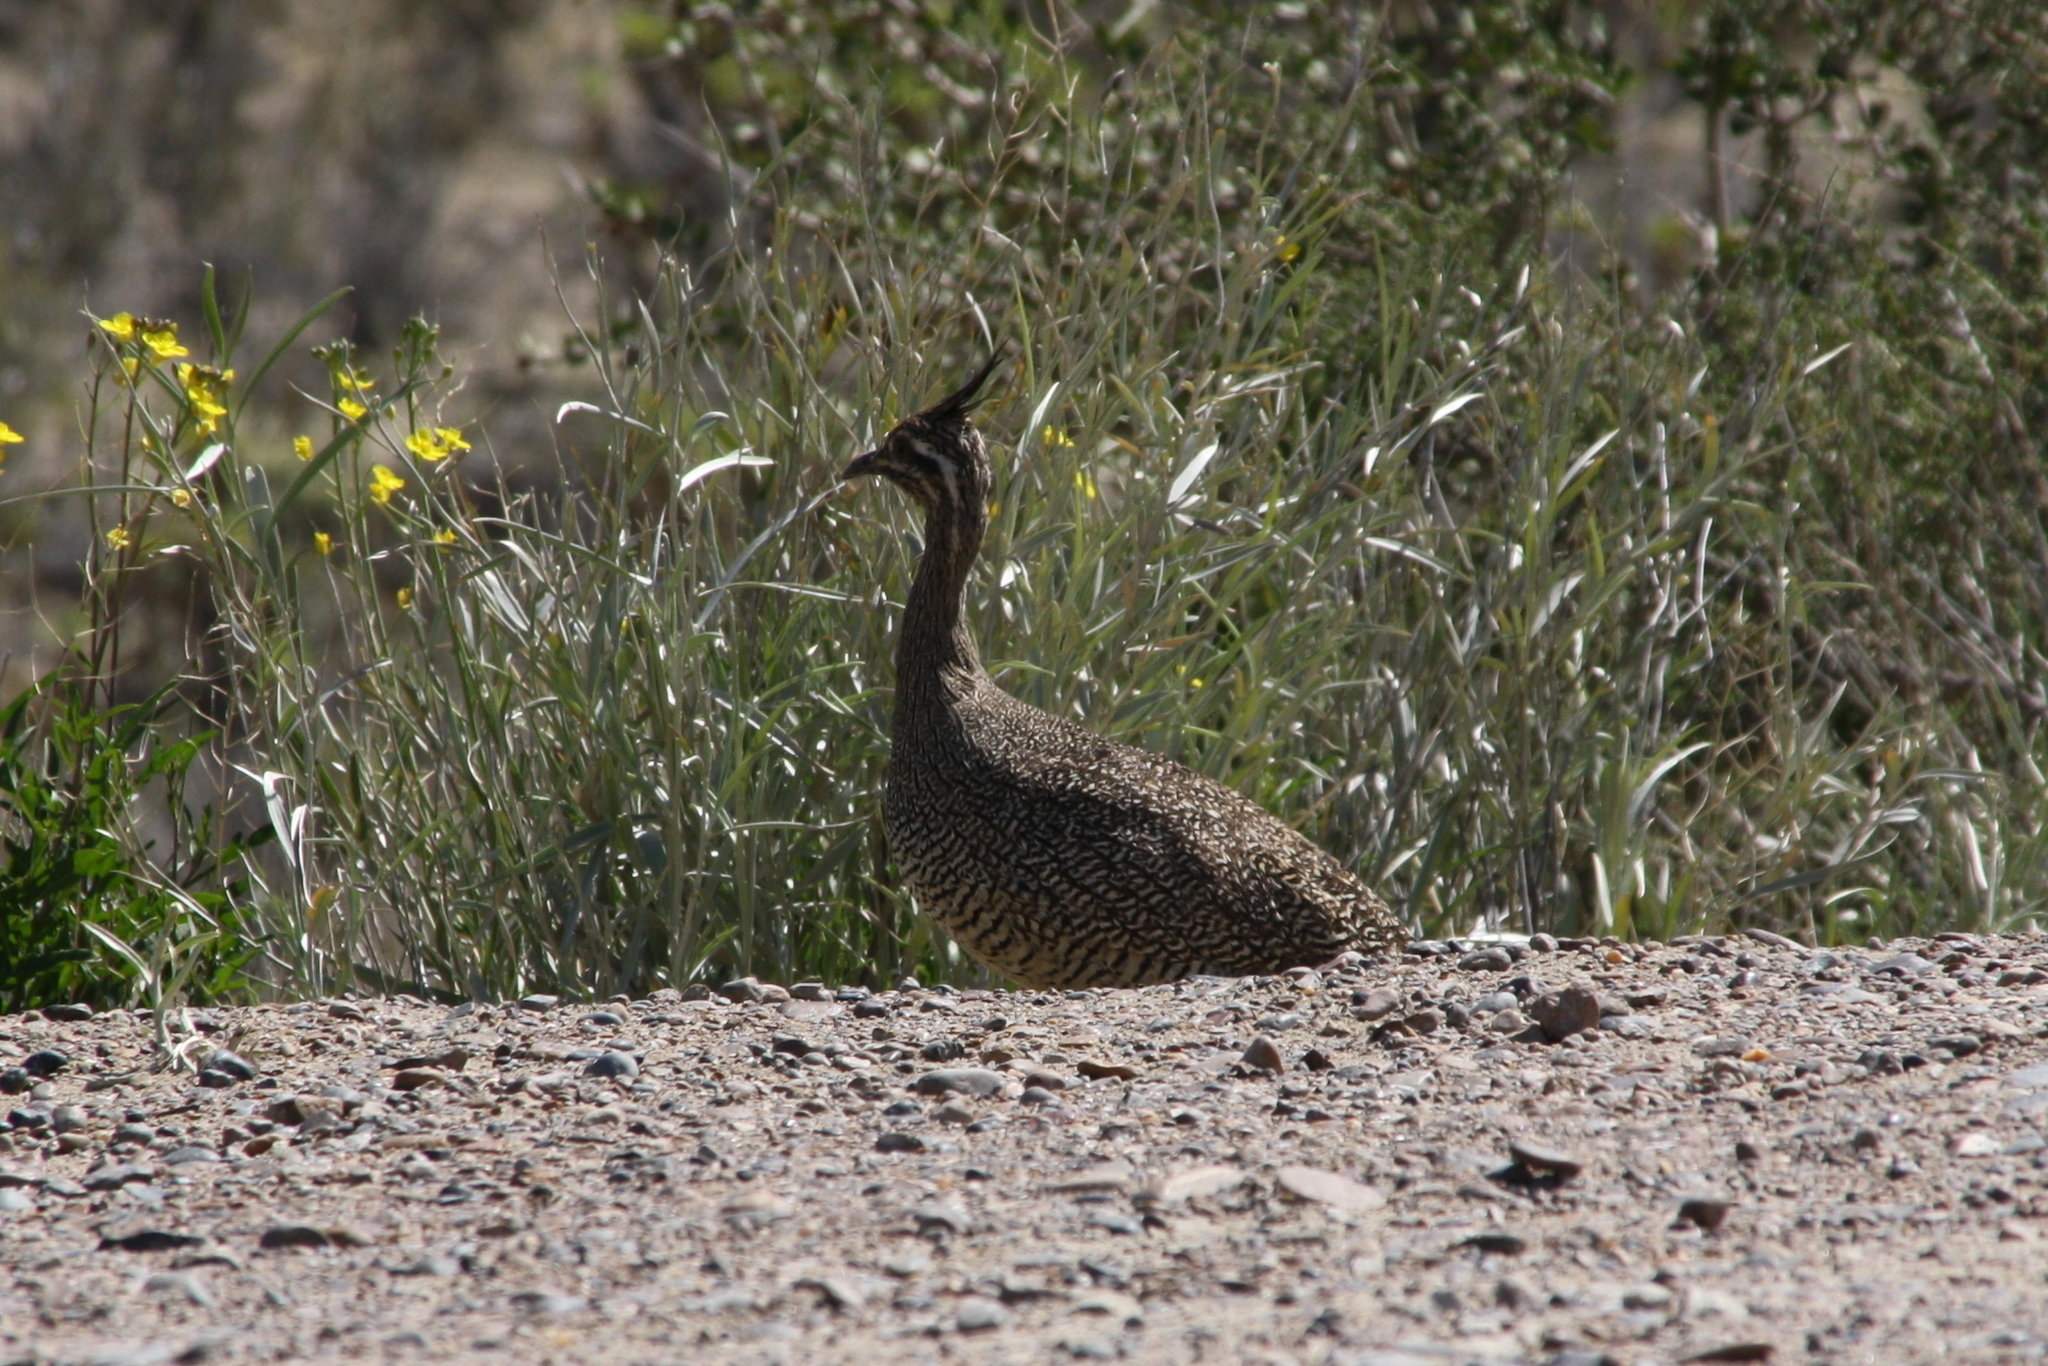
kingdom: Animalia
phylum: Chordata
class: Aves
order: Tinamiformes
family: Tinamidae
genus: Eudromia
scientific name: Eudromia elegans
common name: Elegant crested tinamou
